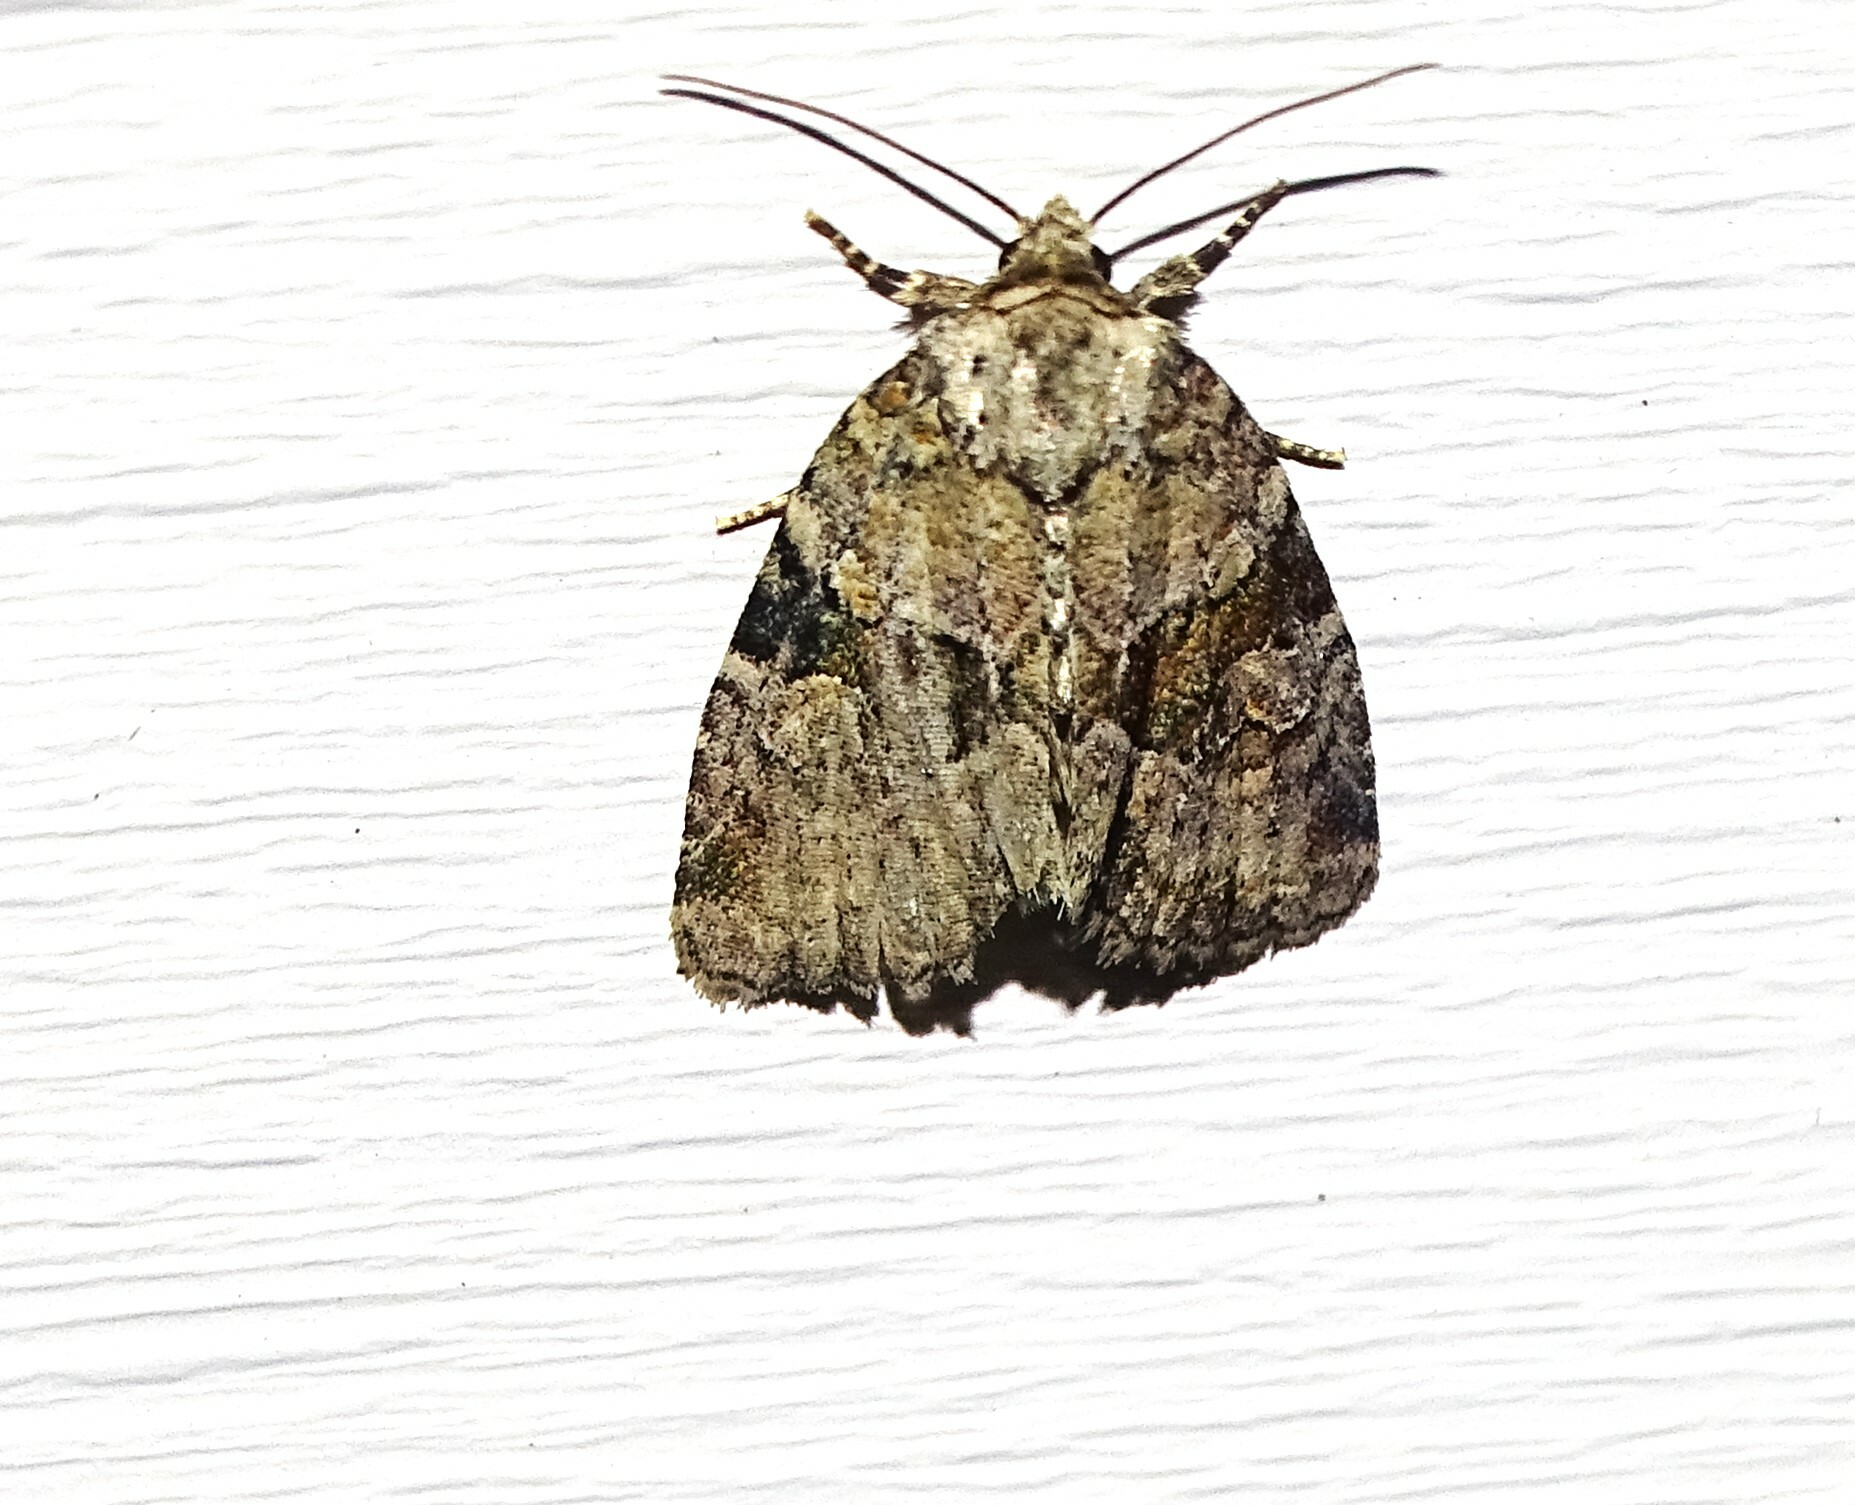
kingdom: Animalia
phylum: Arthropoda
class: Insecta
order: Lepidoptera
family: Noctuidae
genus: Neoligia
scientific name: Neoligia exhausta
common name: Exhausted brocade
